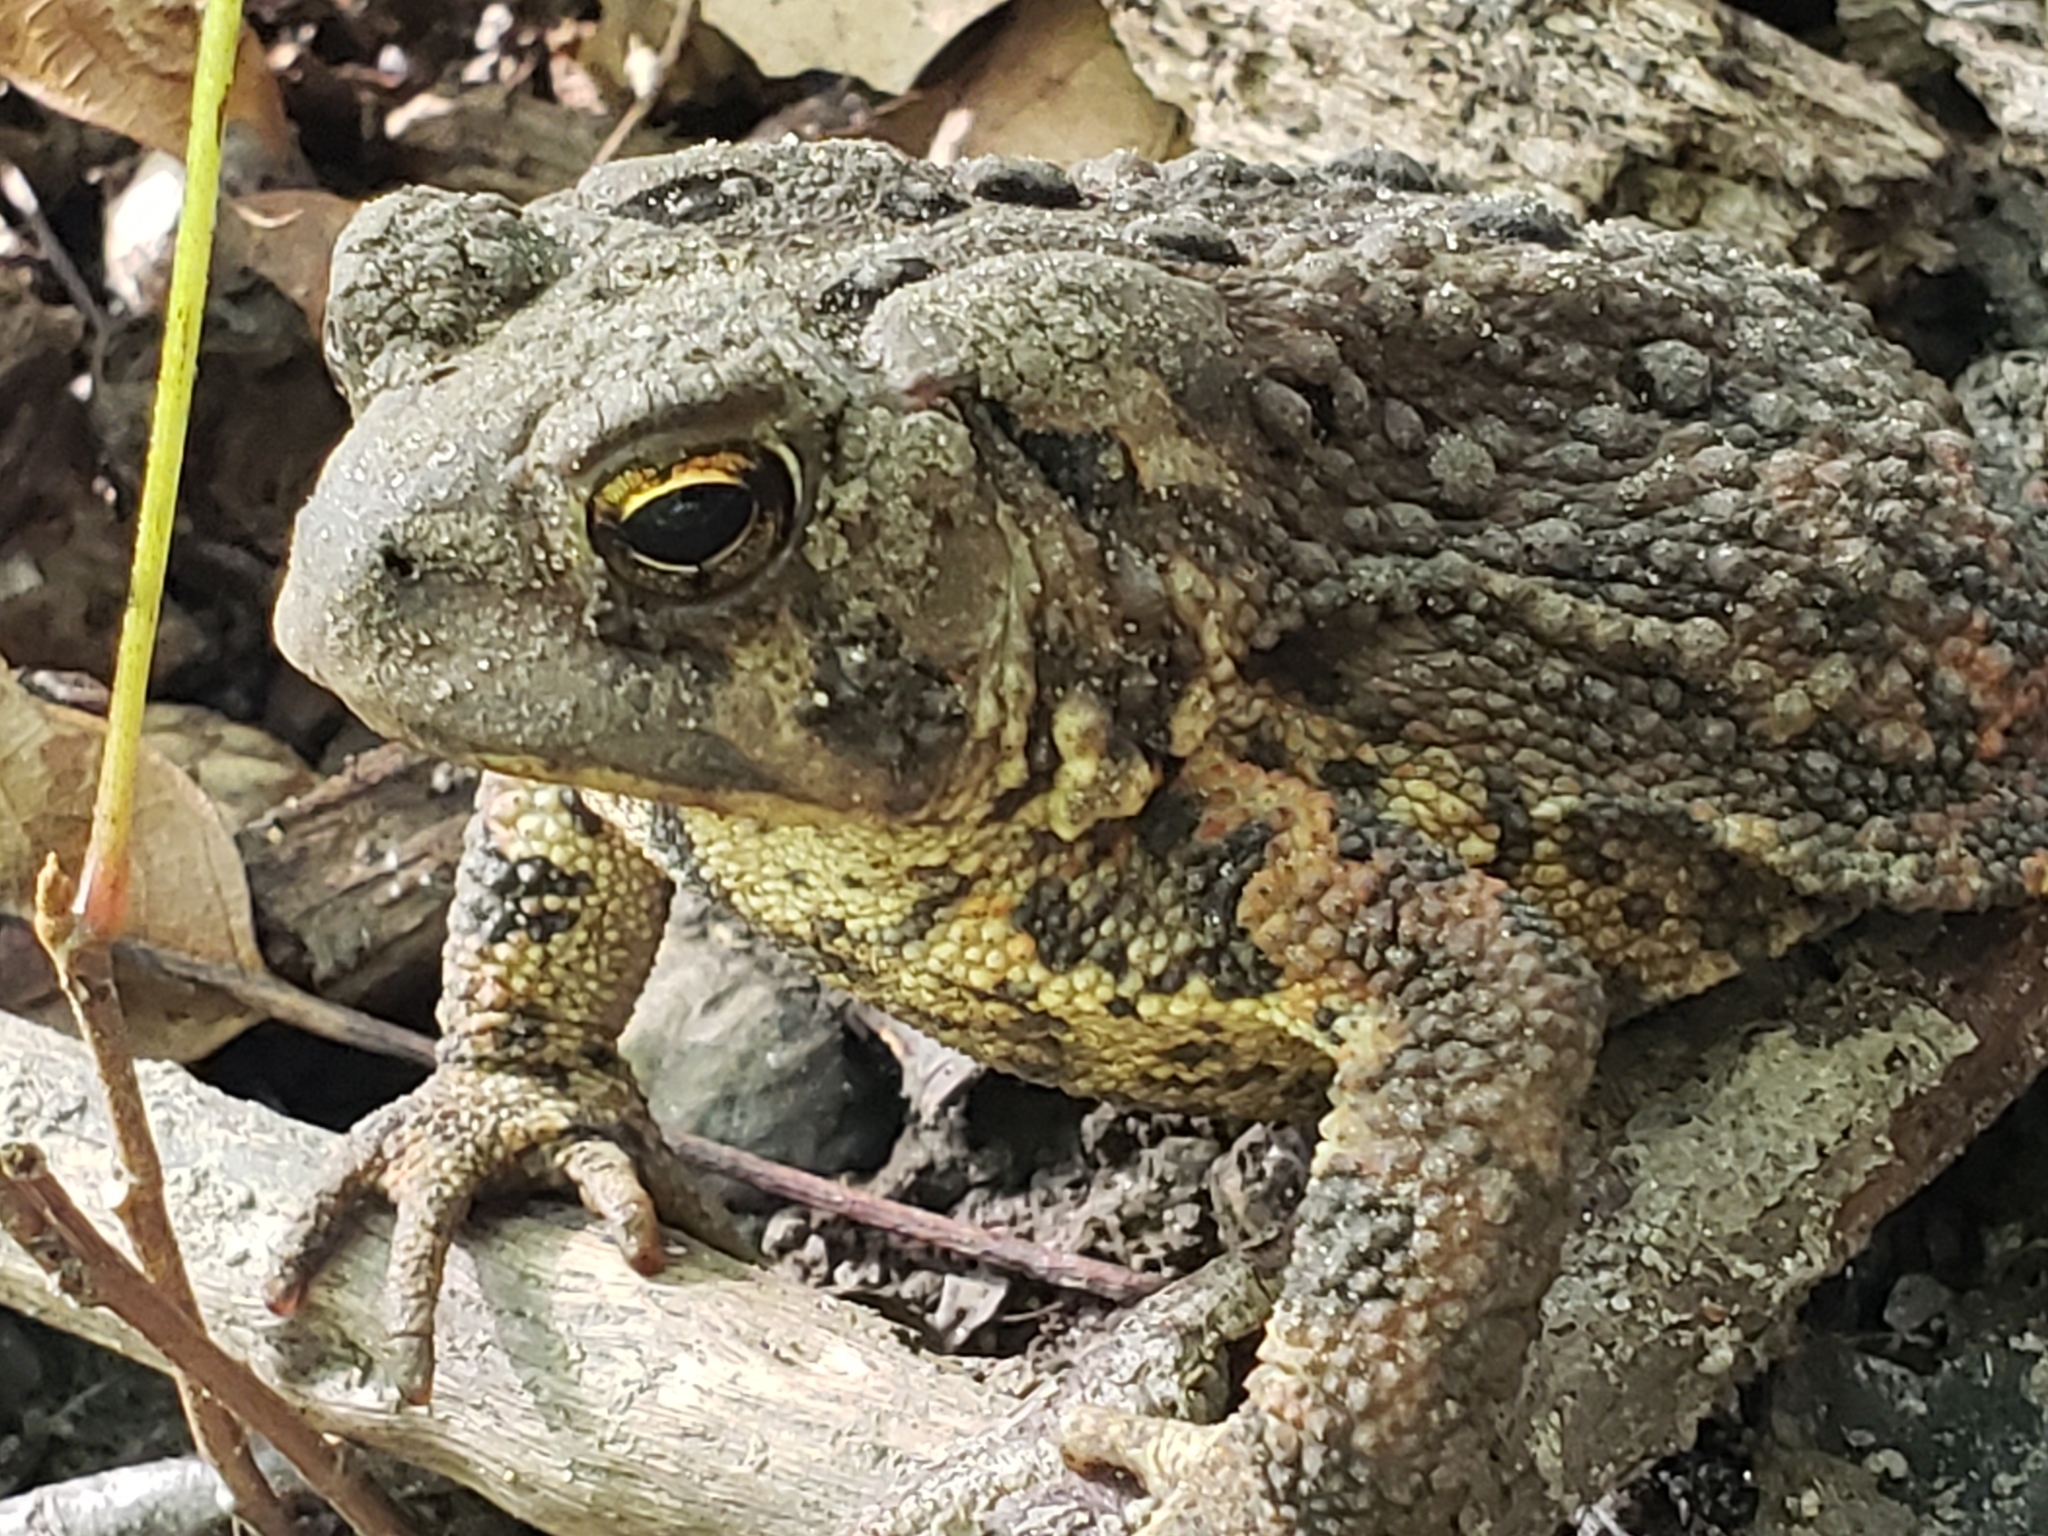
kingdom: Animalia
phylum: Chordata
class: Amphibia
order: Anura
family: Bufonidae
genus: Anaxyrus
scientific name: Anaxyrus americanus
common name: American toad
